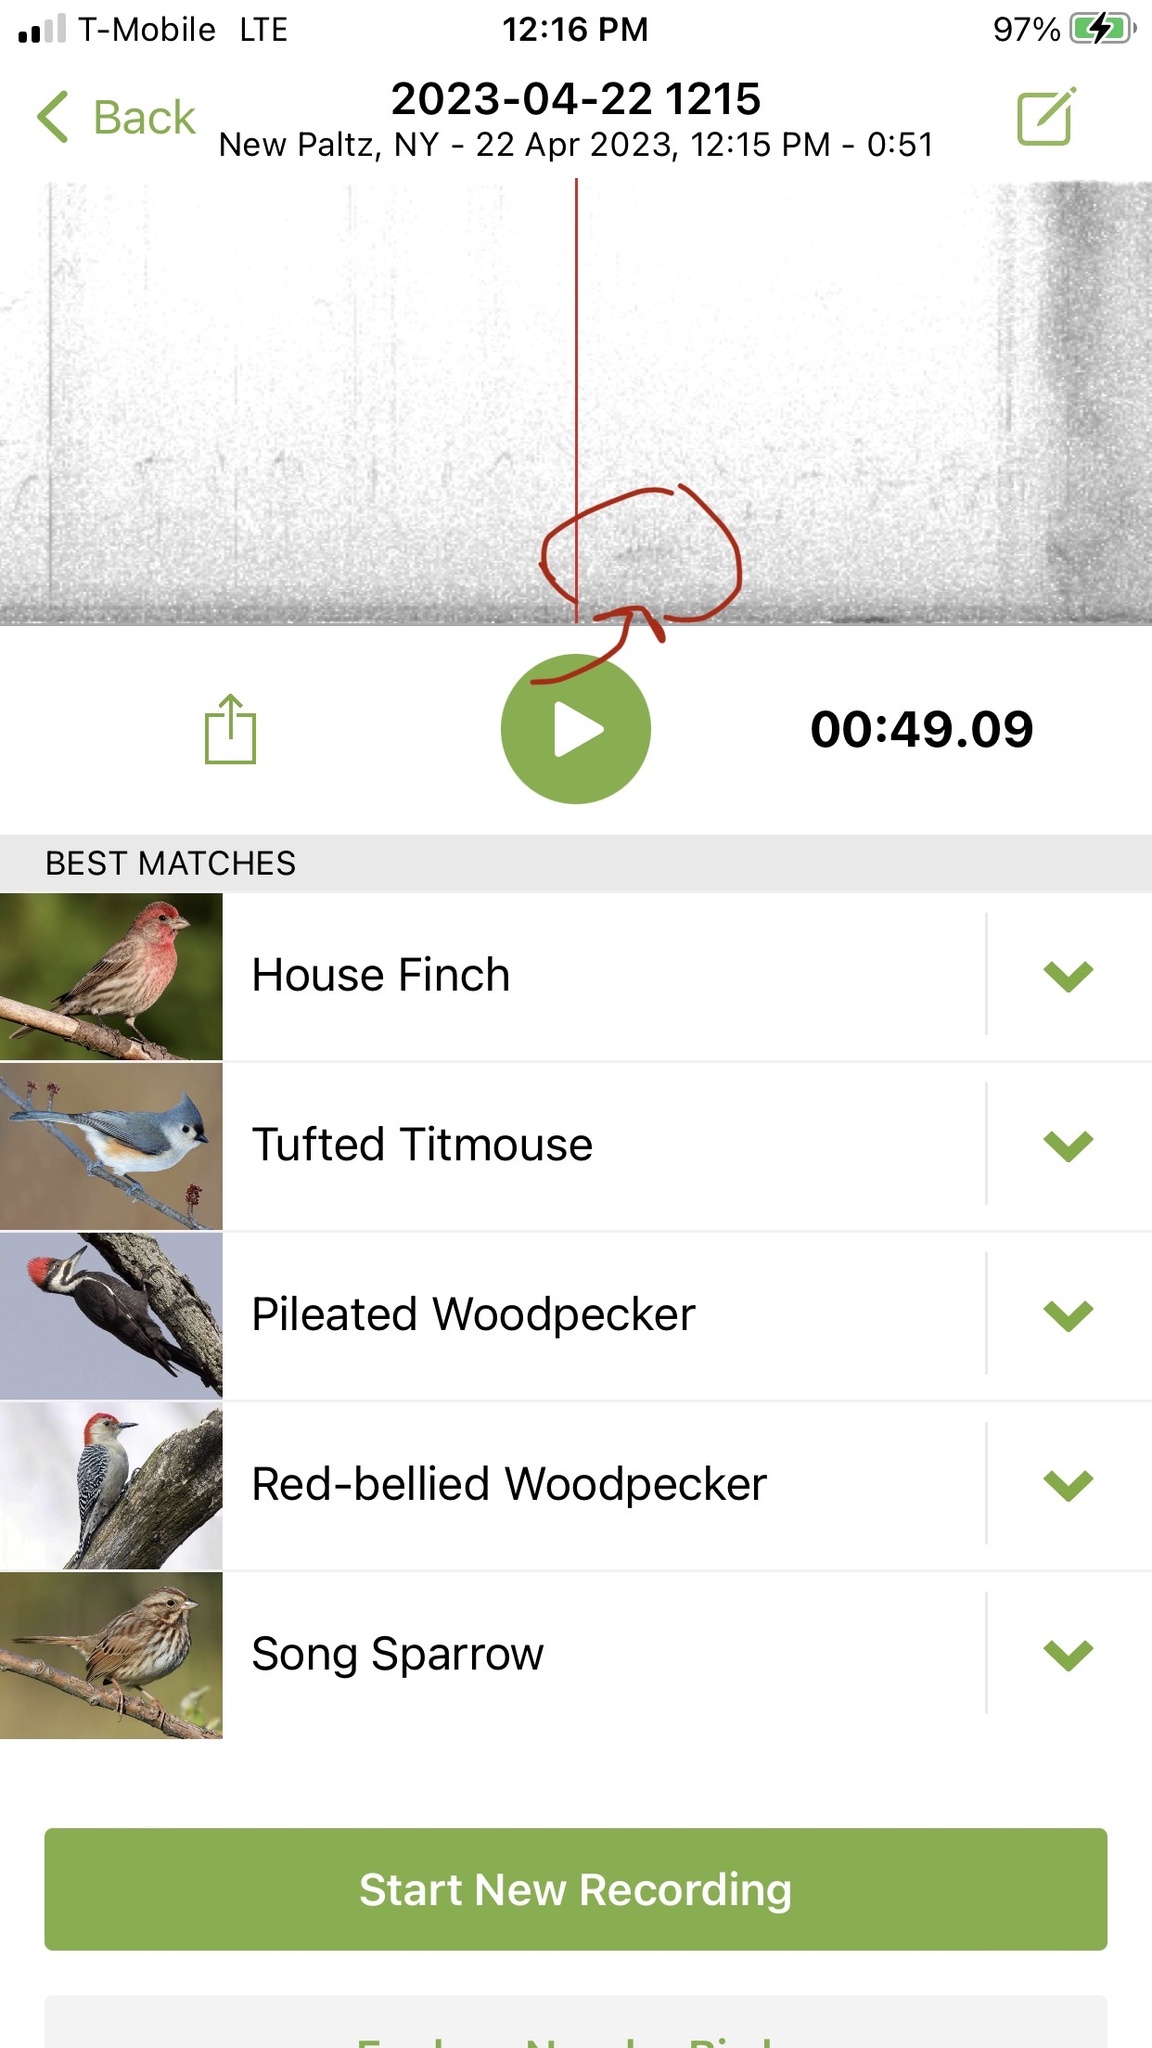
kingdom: Animalia
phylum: Chordata
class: Aves
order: Piciformes
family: Picidae
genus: Melanerpes
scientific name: Melanerpes carolinus
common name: Red-bellied woodpecker
